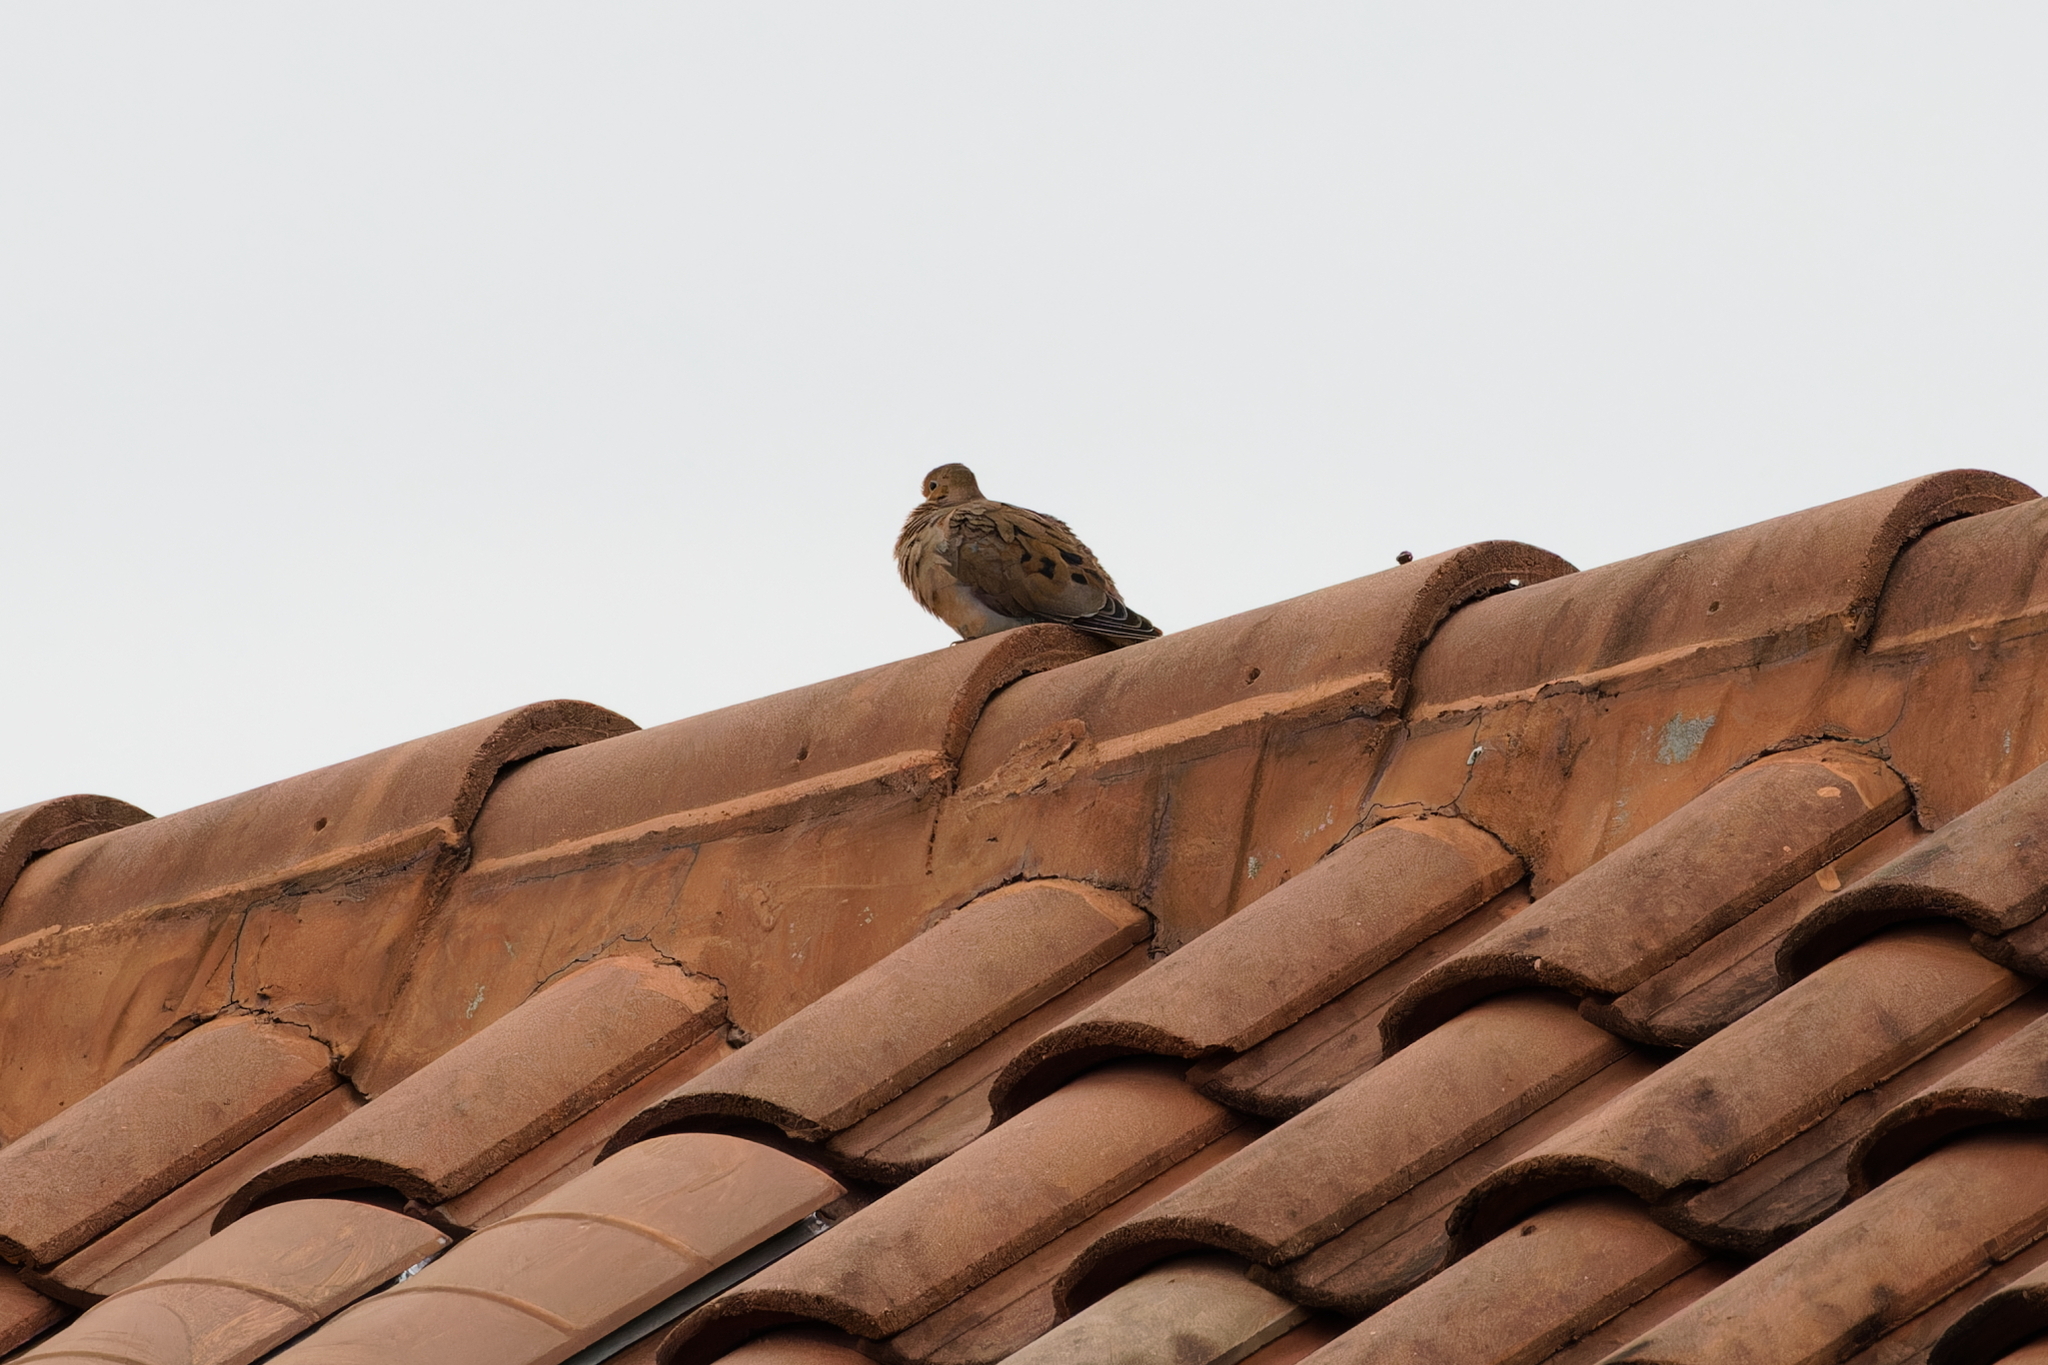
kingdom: Animalia
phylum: Chordata
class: Aves
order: Columbiformes
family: Columbidae
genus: Zenaida
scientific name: Zenaida macroura
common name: Mourning dove
